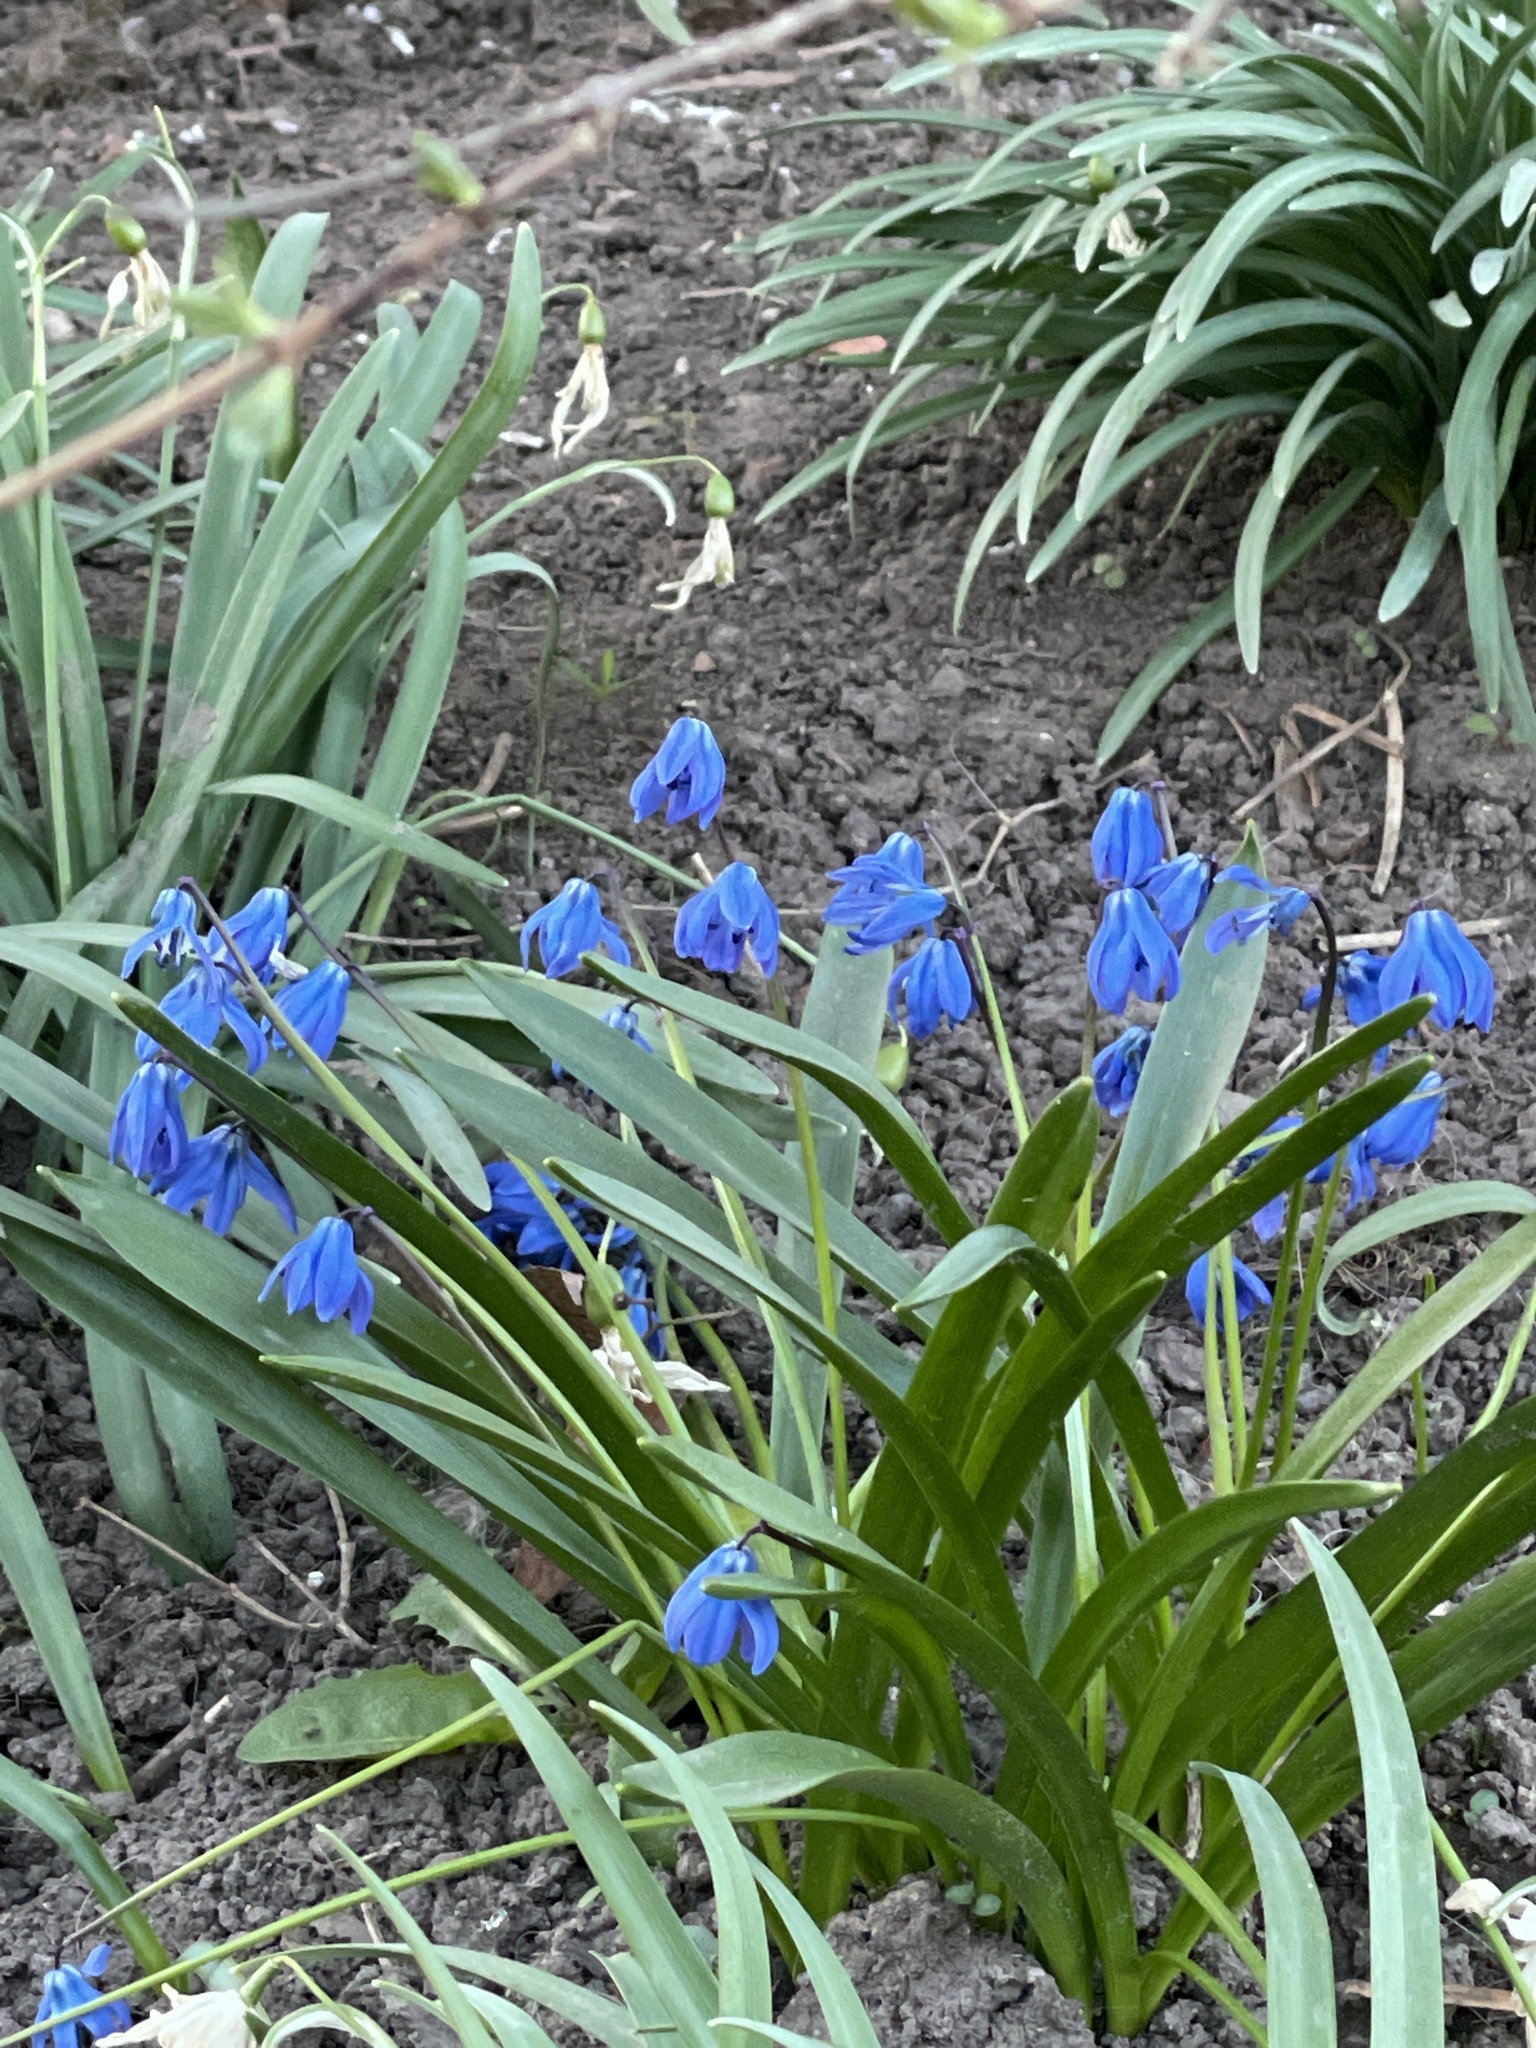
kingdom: Plantae
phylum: Tracheophyta
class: Liliopsida
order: Asparagales
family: Asparagaceae
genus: Scilla
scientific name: Scilla siberica
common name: Siberian squill
